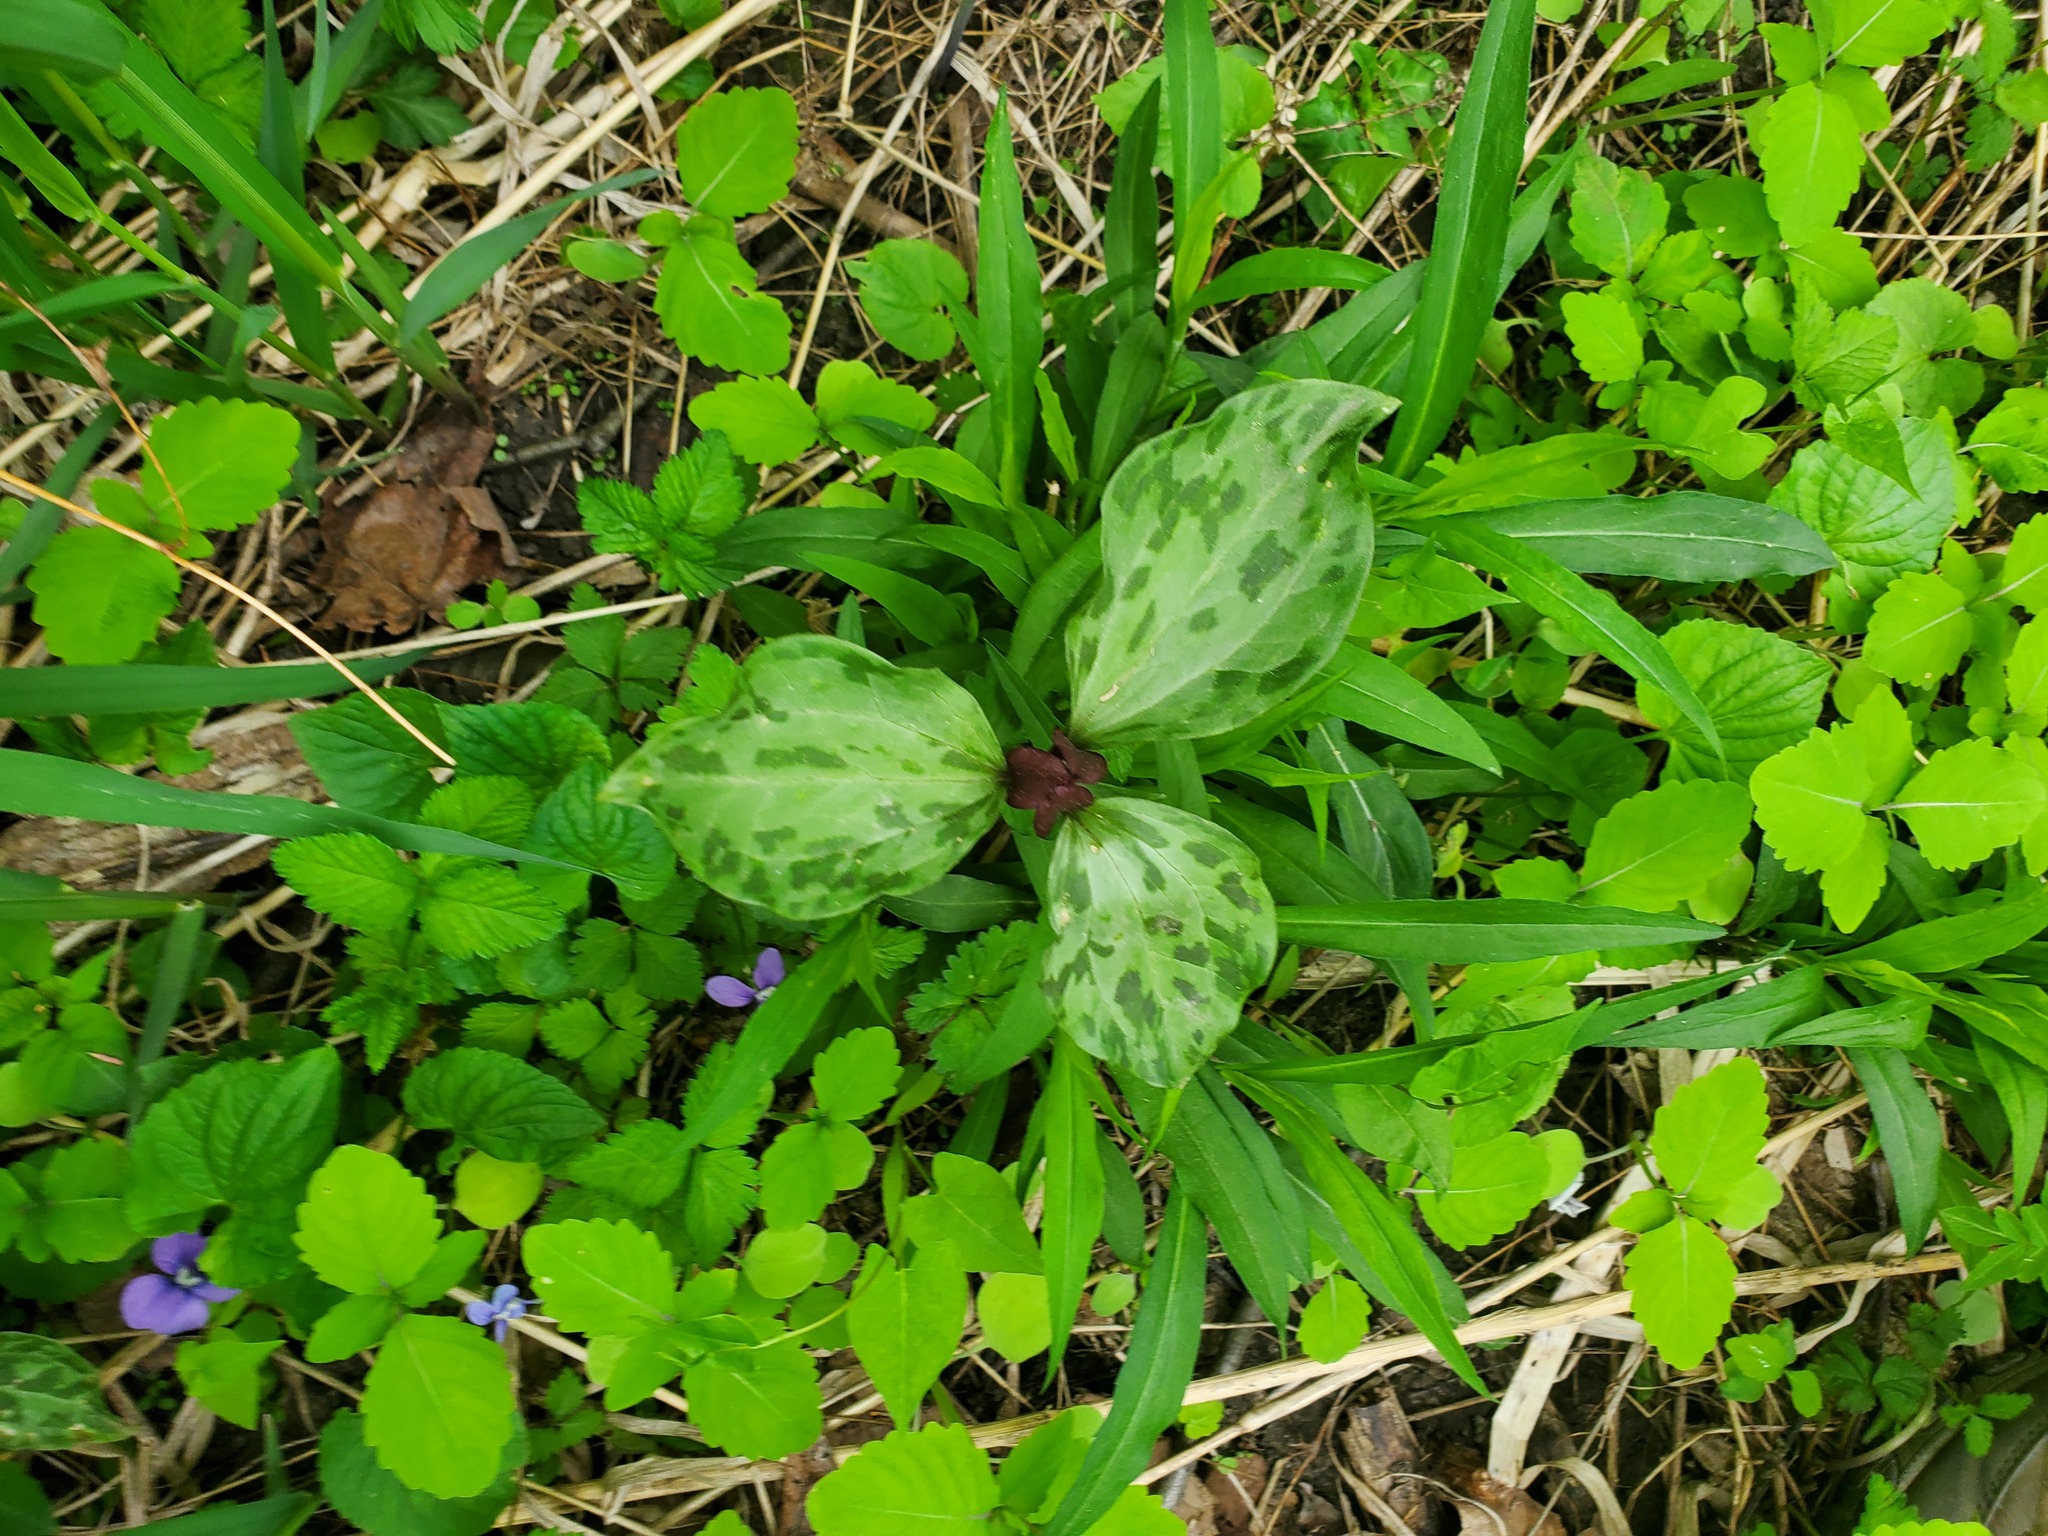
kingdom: Plantae
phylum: Tracheophyta
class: Liliopsida
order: Liliales
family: Melanthiaceae
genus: Trillium
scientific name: Trillium recurvatum
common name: Bloody butcher
